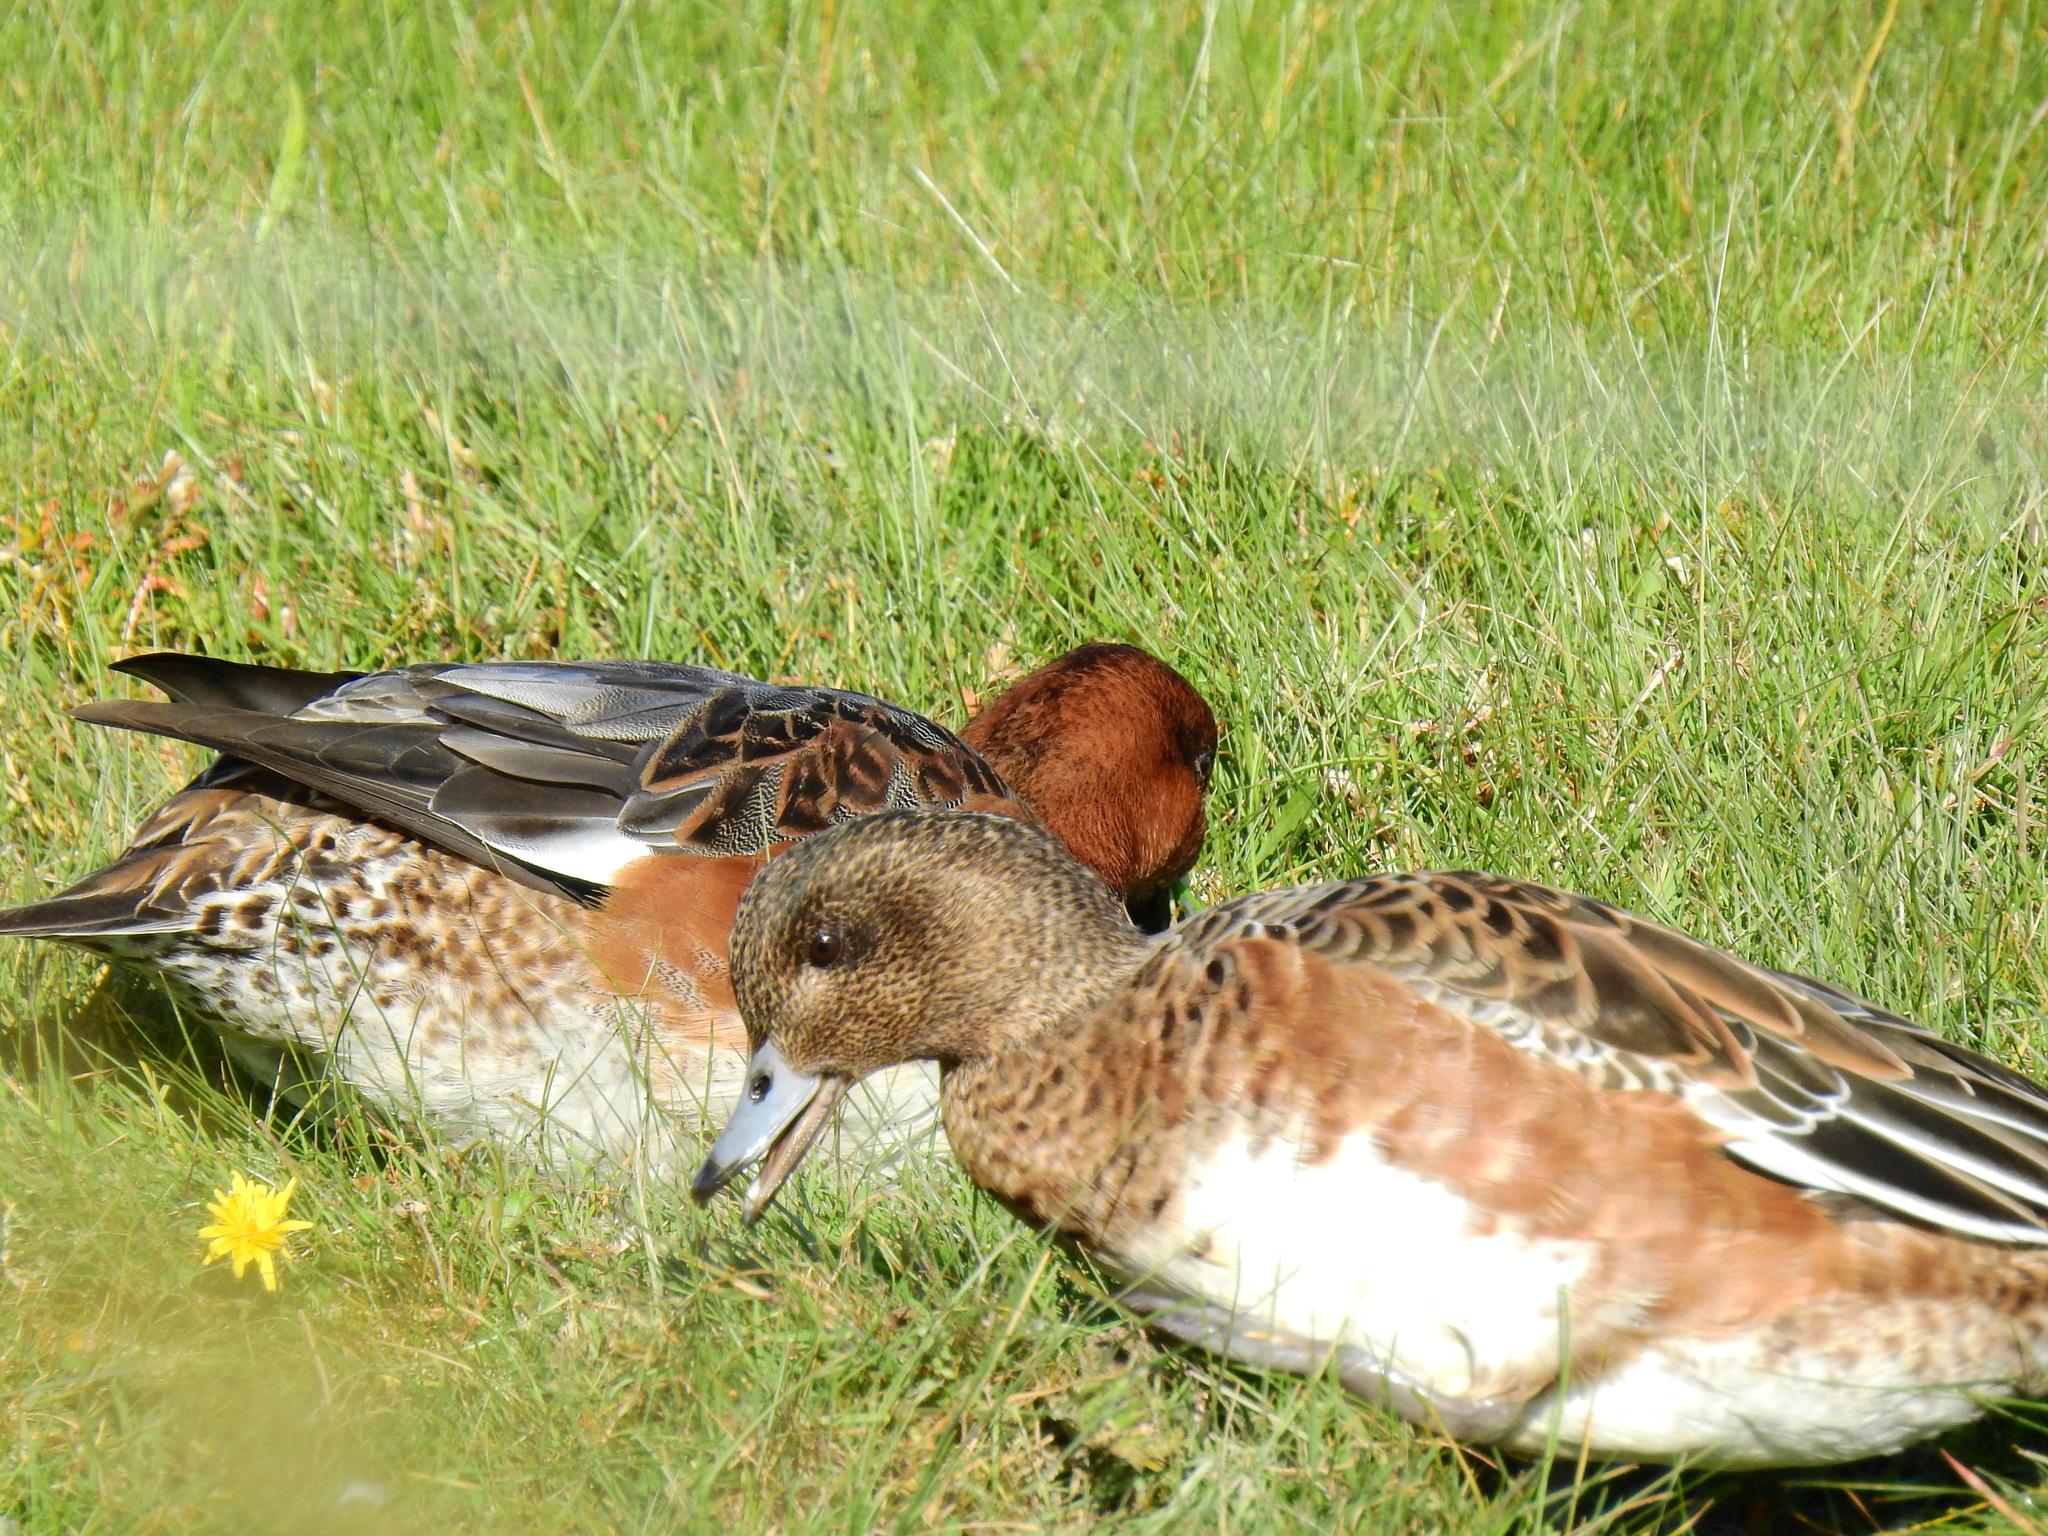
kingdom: Animalia
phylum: Chordata
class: Aves
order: Anseriformes
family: Anatidae
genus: Mareca
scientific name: Mareca penelope
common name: Eurasian wigeon
